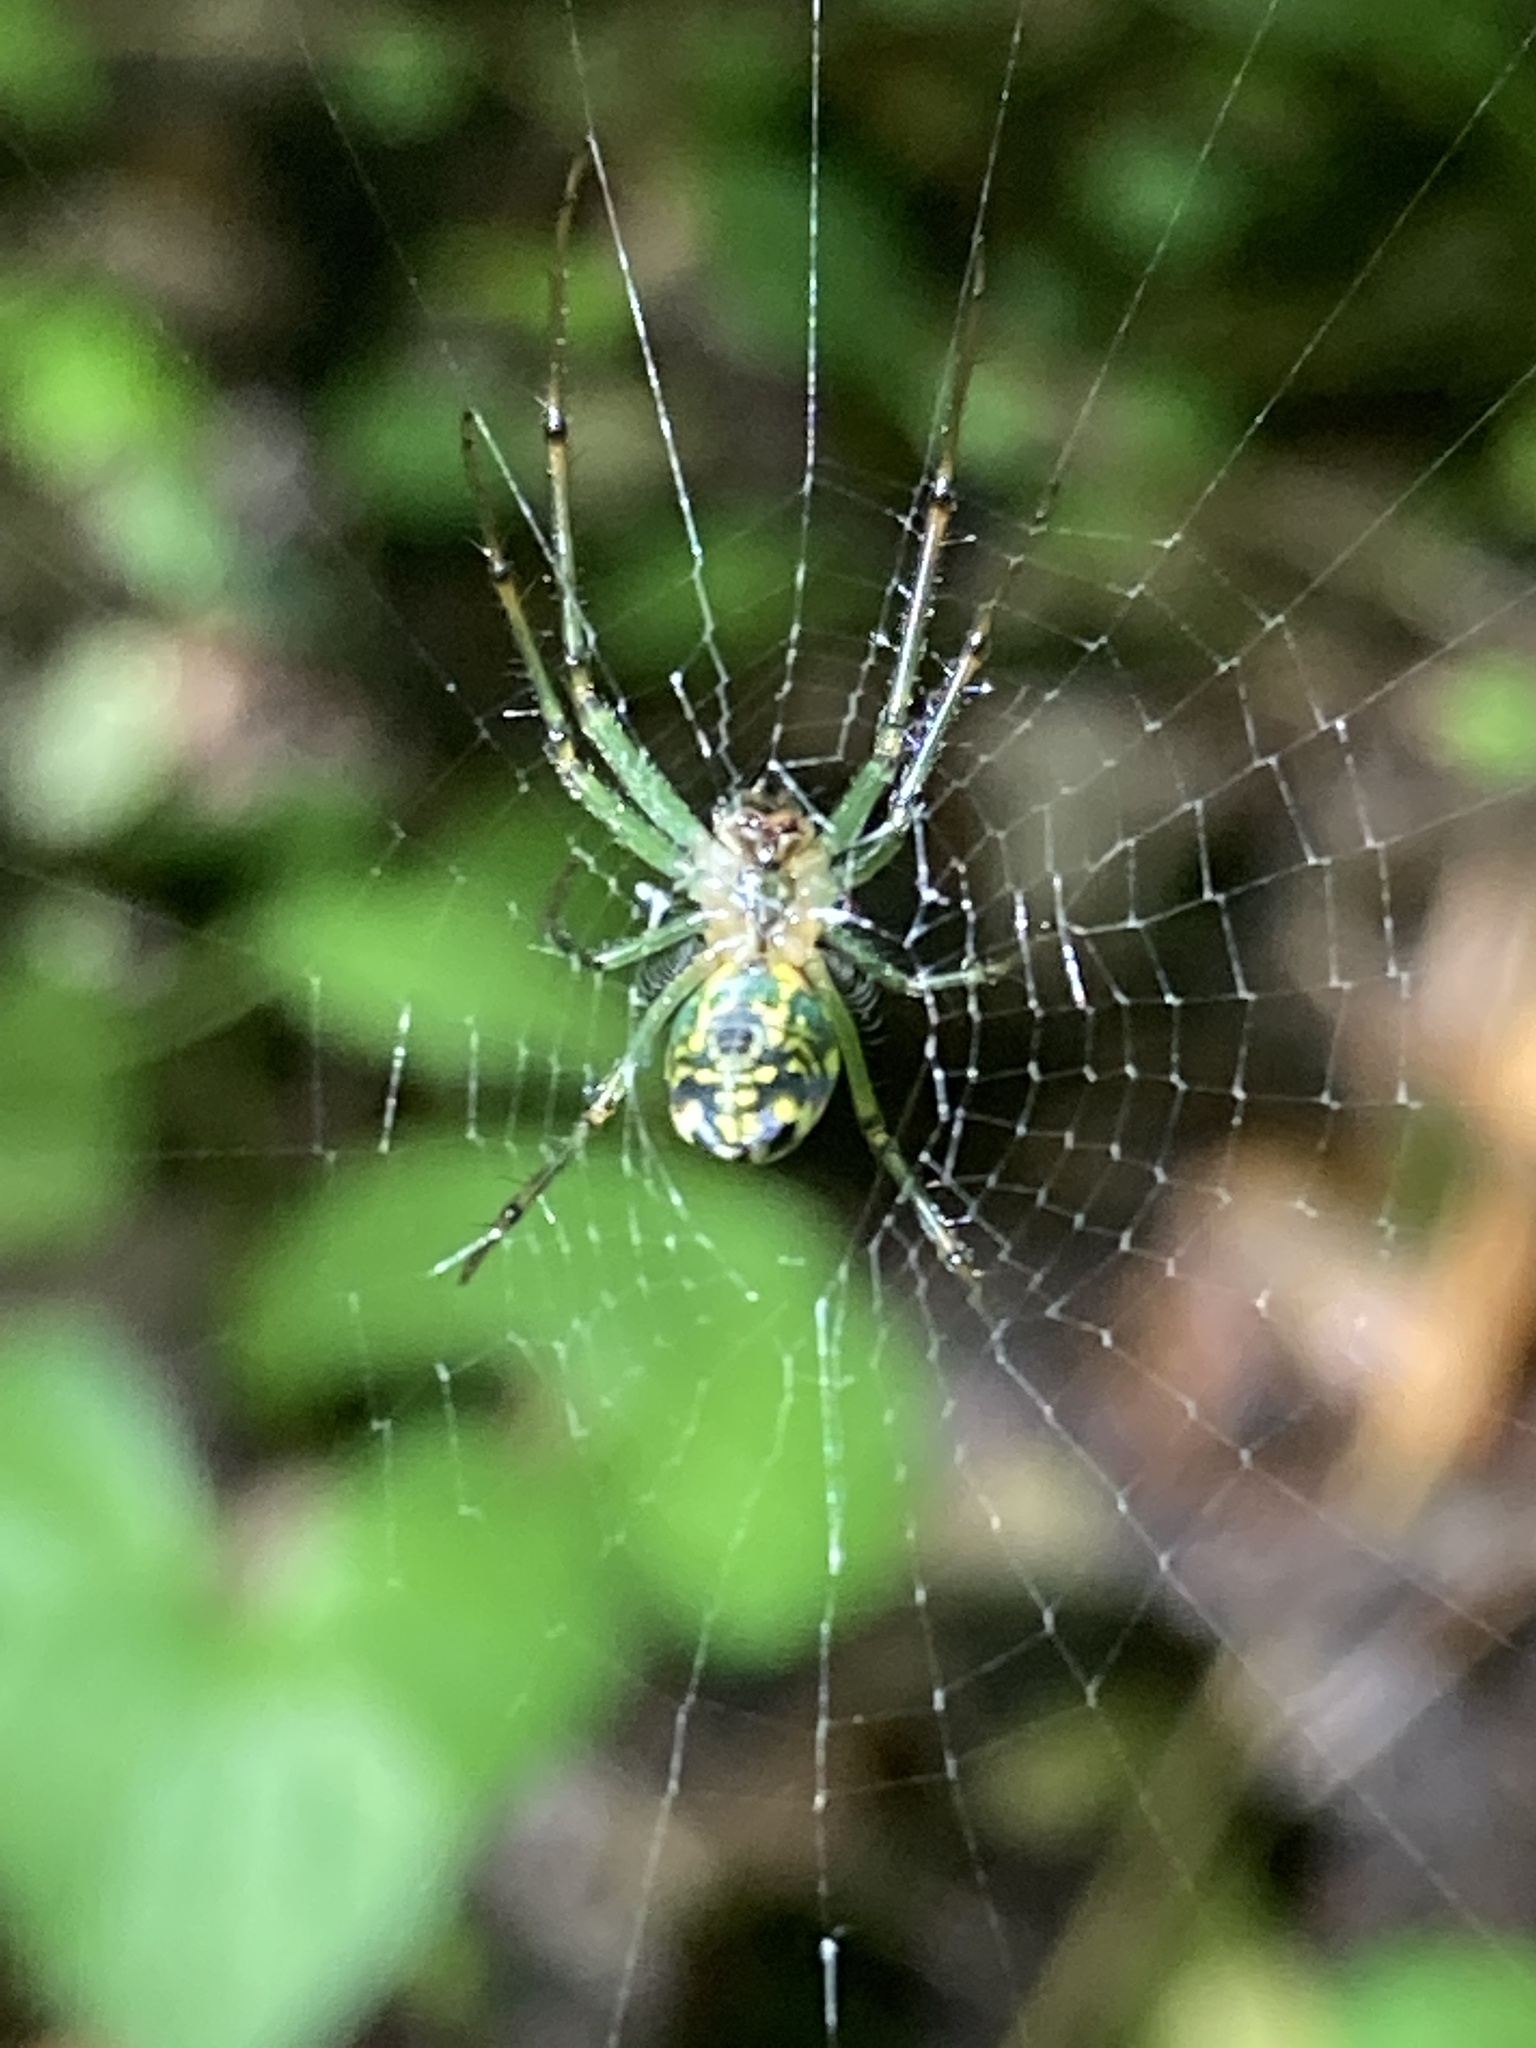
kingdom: Animalia
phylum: Arthropoda
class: Arachnida
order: Araneae
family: Tetragnathidae
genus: Leucauge
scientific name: Leucauge venusta
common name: Longjawed orb weavers
